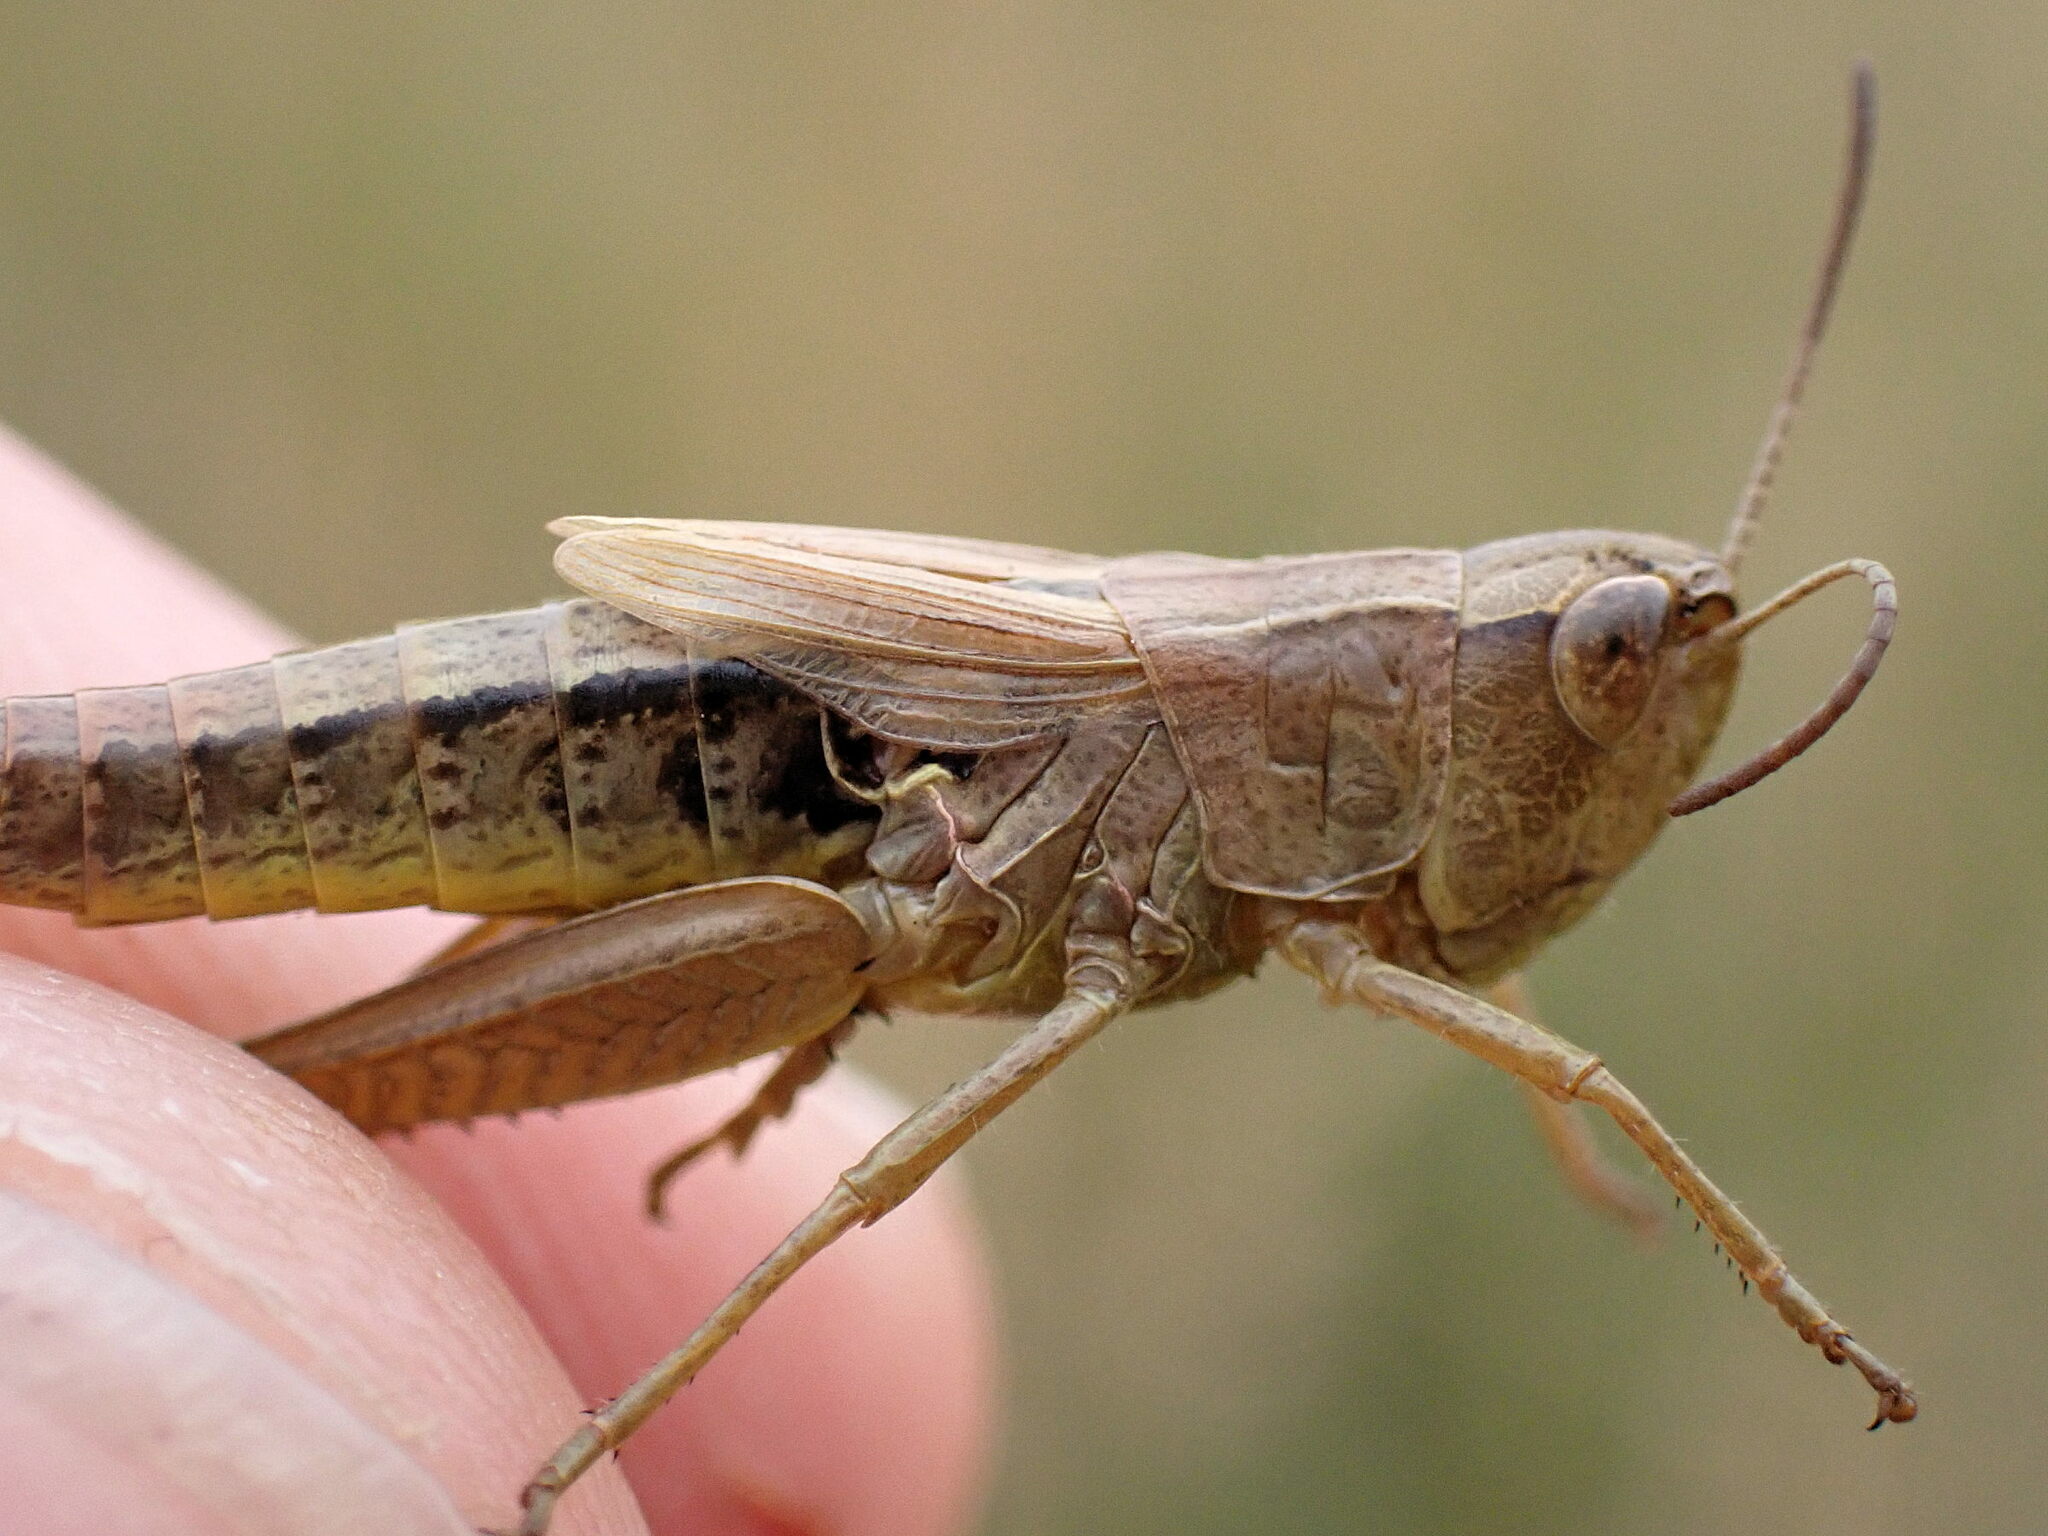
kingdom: Animalia
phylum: Arthropoda
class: Insecta
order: Orthoptera
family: Acrididae
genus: Pseudochorthippus
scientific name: Pseudochorthippus parallelus
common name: Meadow grasshopper
